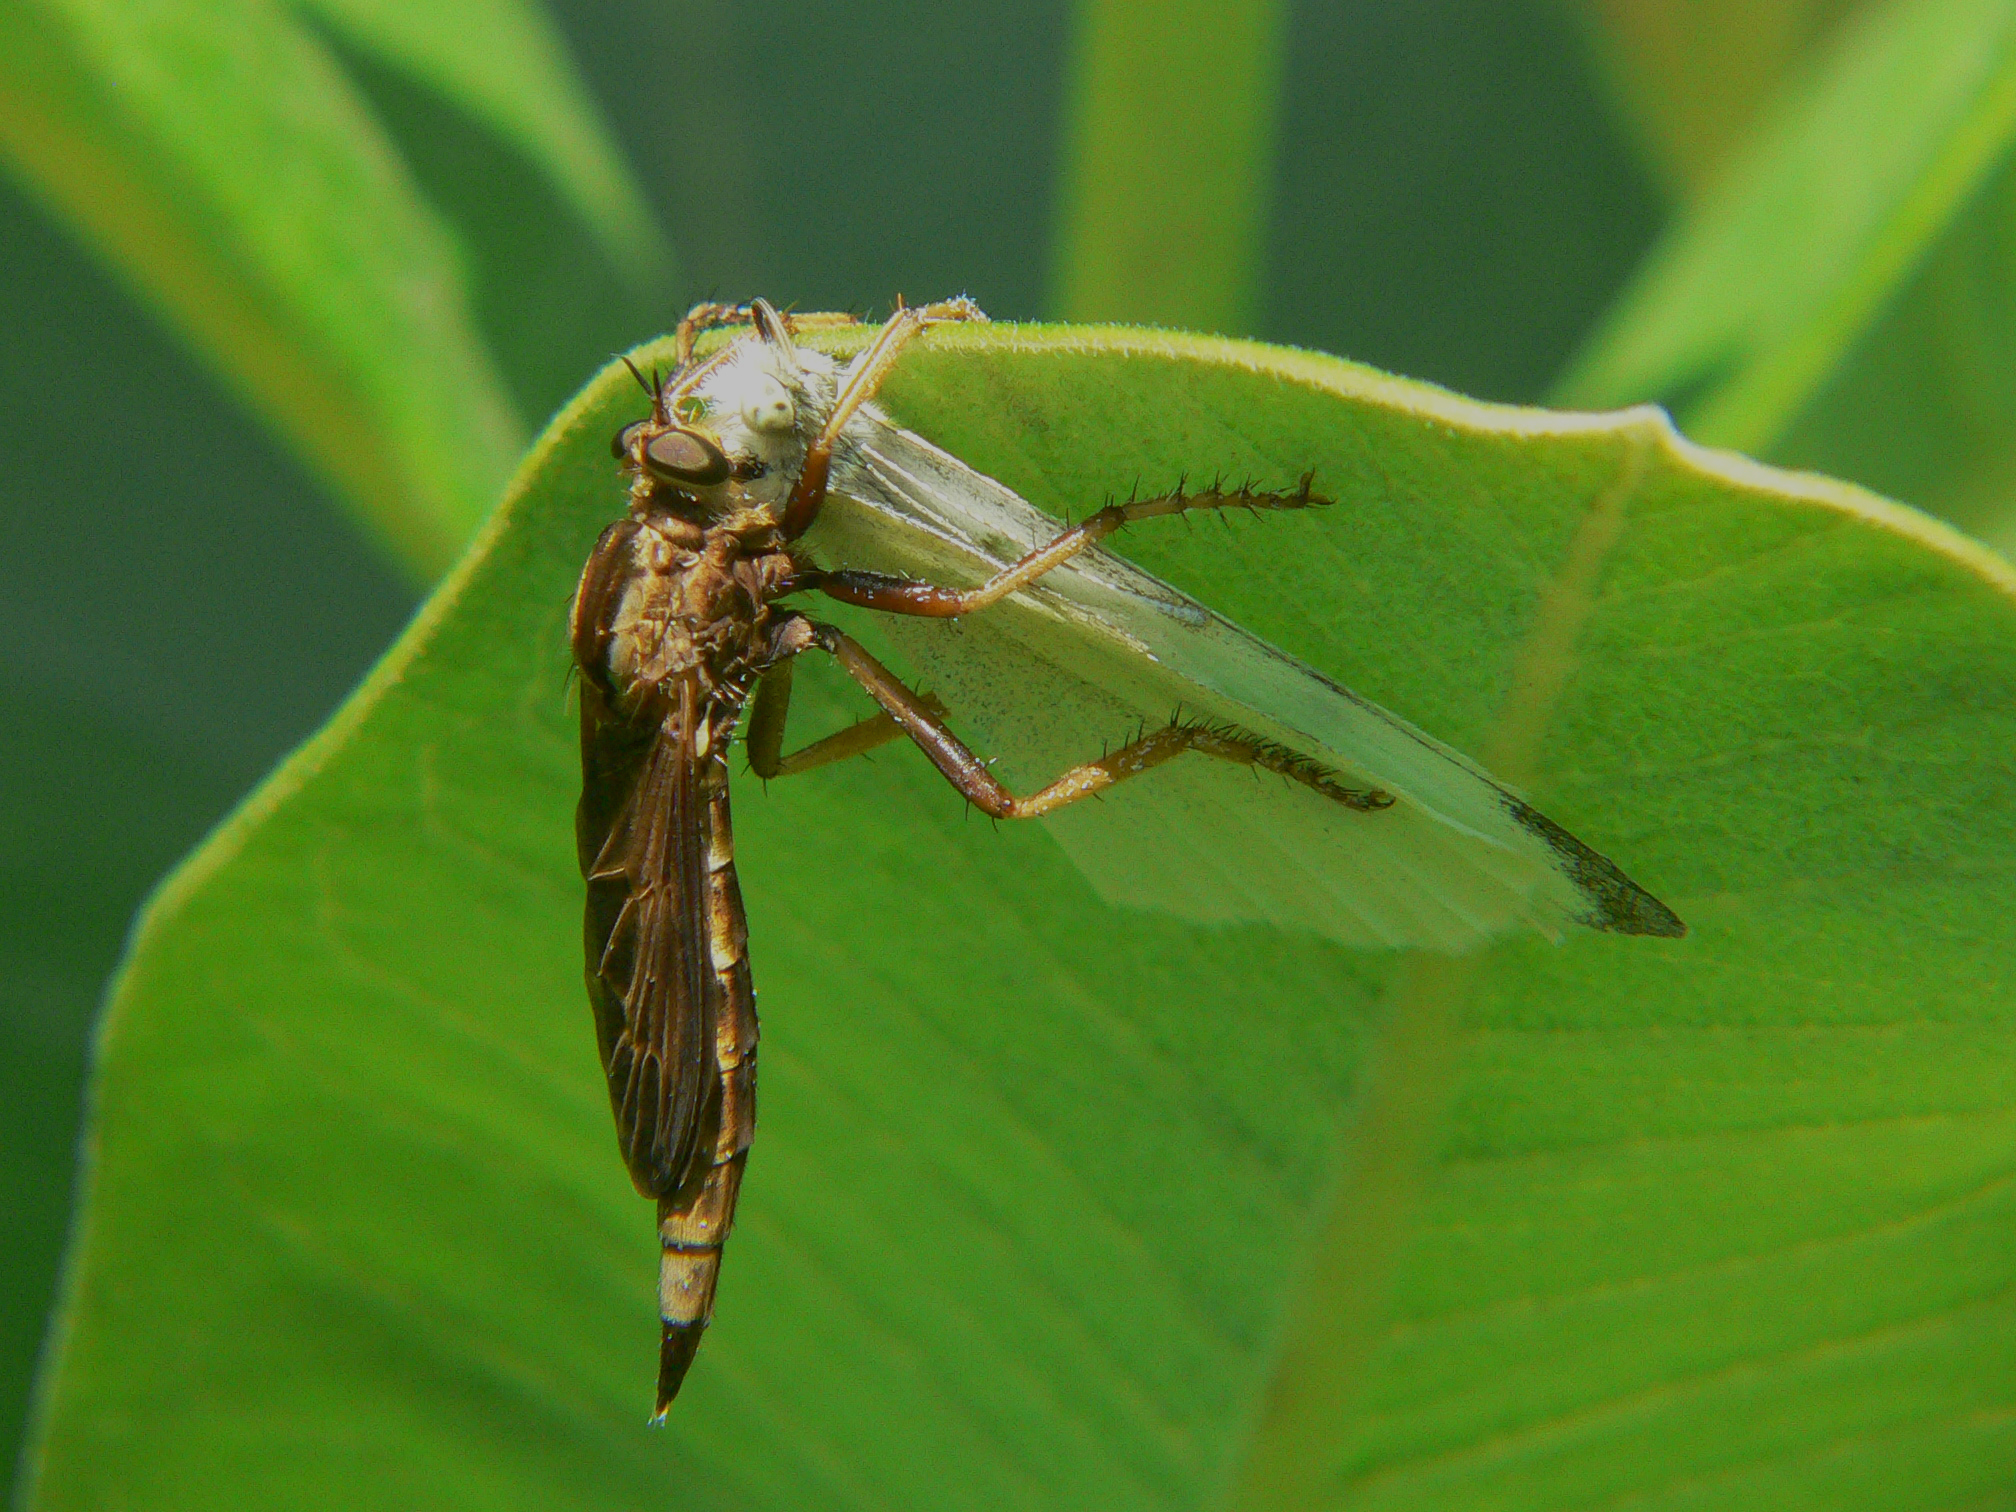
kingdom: Animalia
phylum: Arthropoda
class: Insecta
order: Diptera
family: Asilidae
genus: Asilus
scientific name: Asilus sericeus
